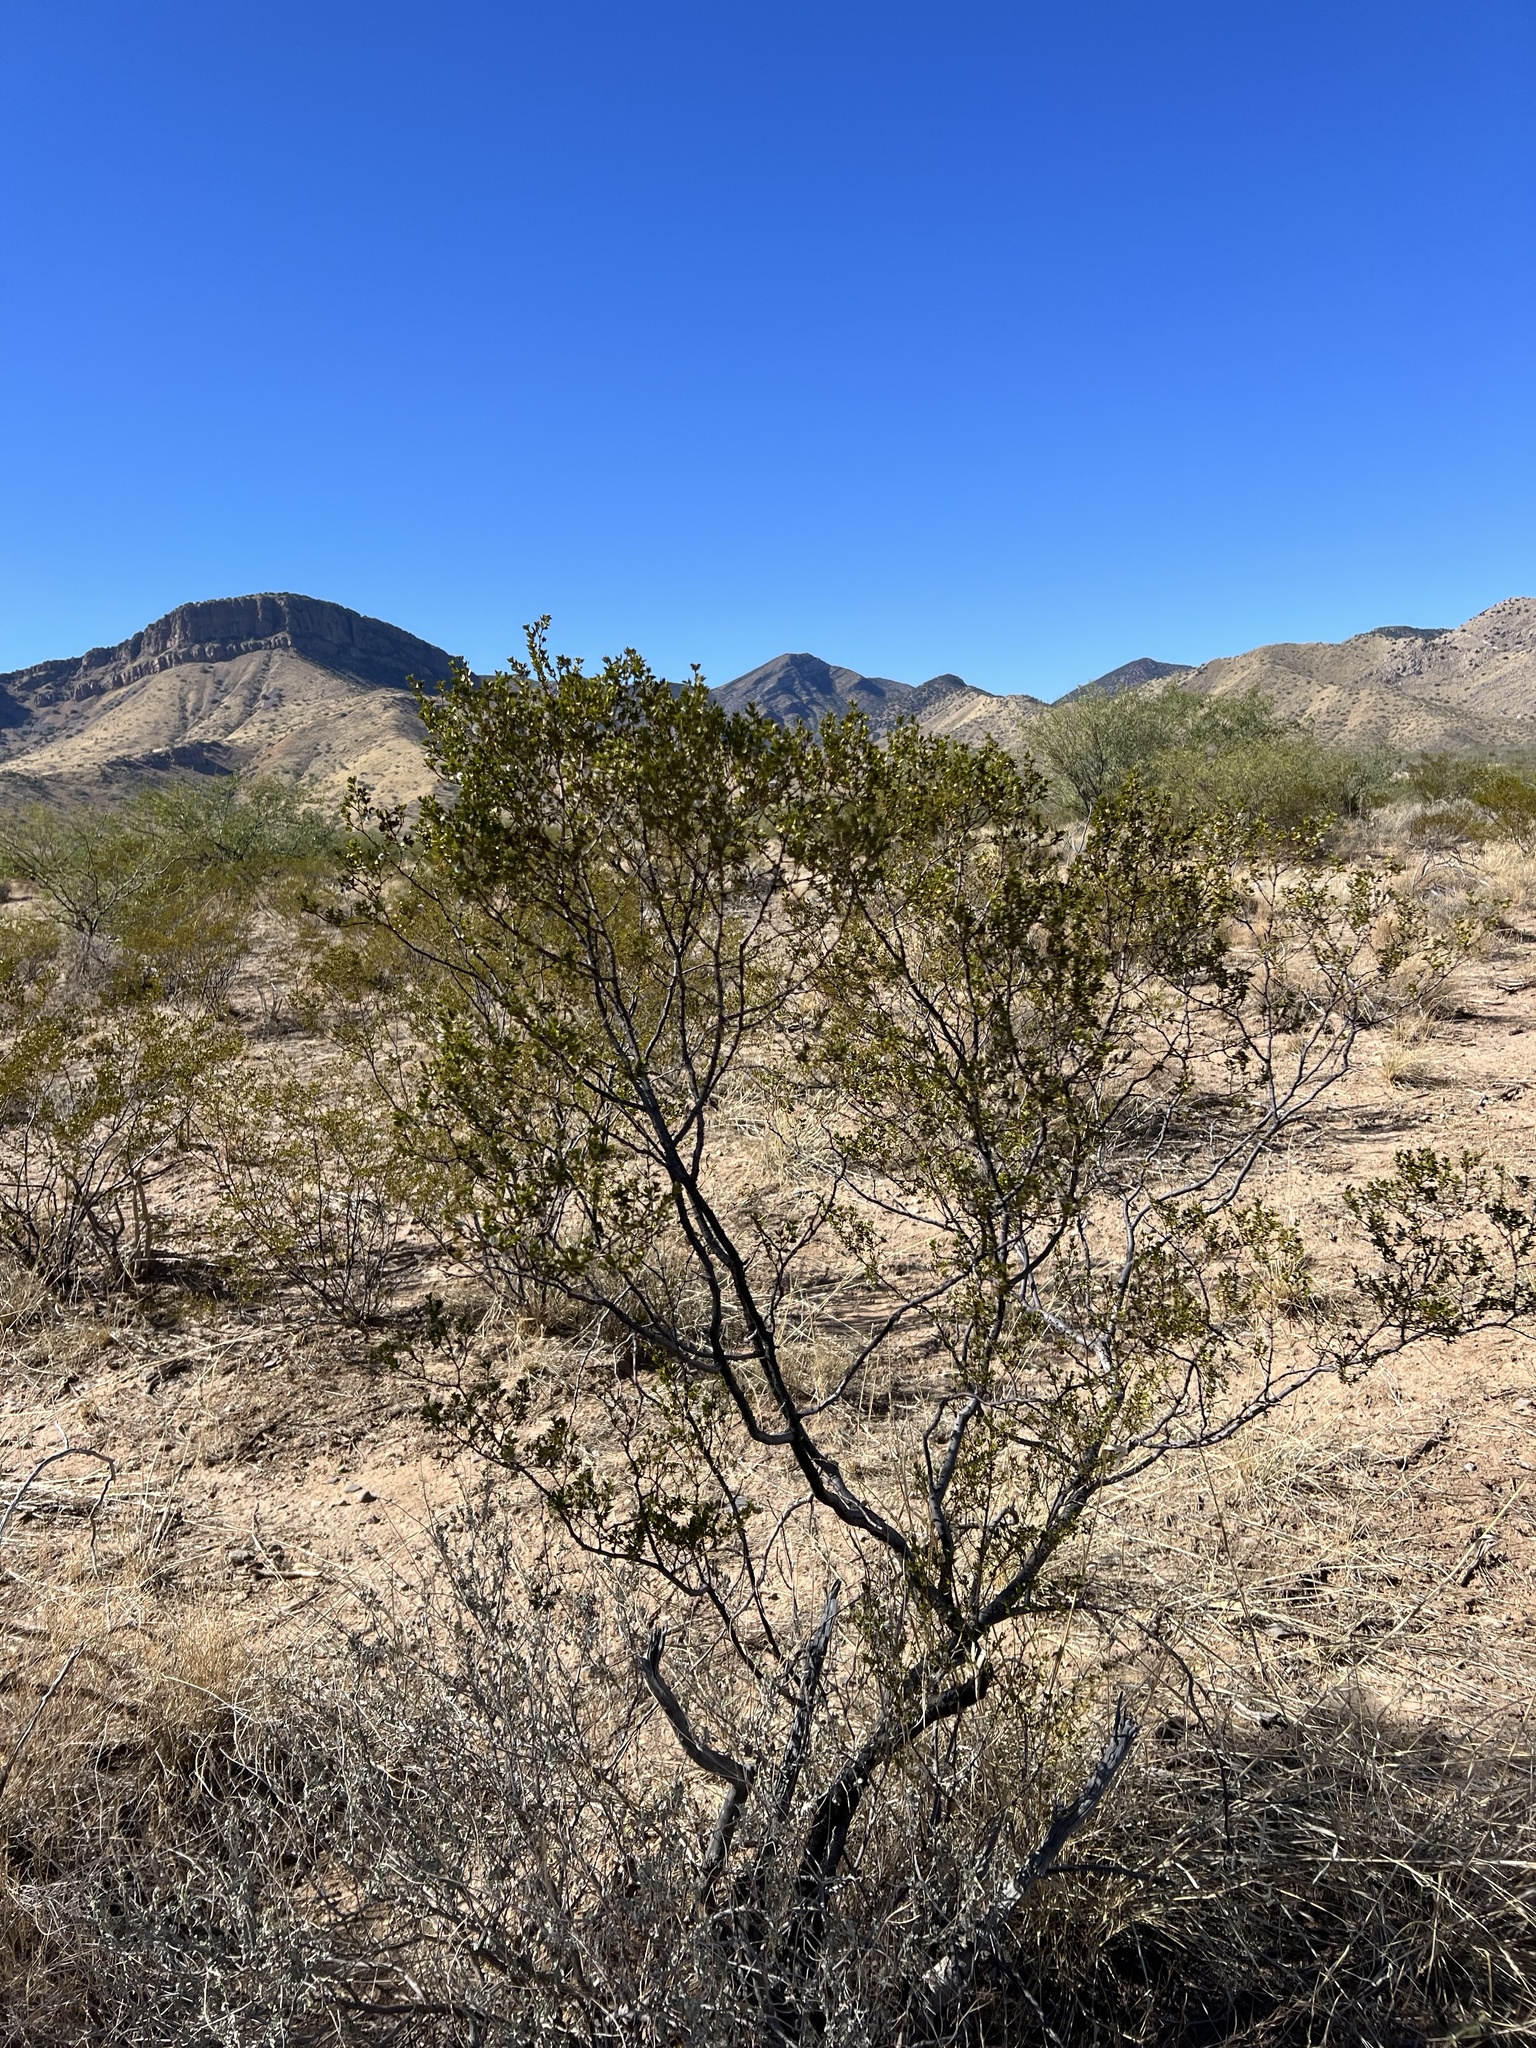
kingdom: Plantae
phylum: Tracheophyta
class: Magnoliopsida
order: Zygophyllales
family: Zygophyllaceae
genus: Larrea
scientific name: Larrea tridentata
